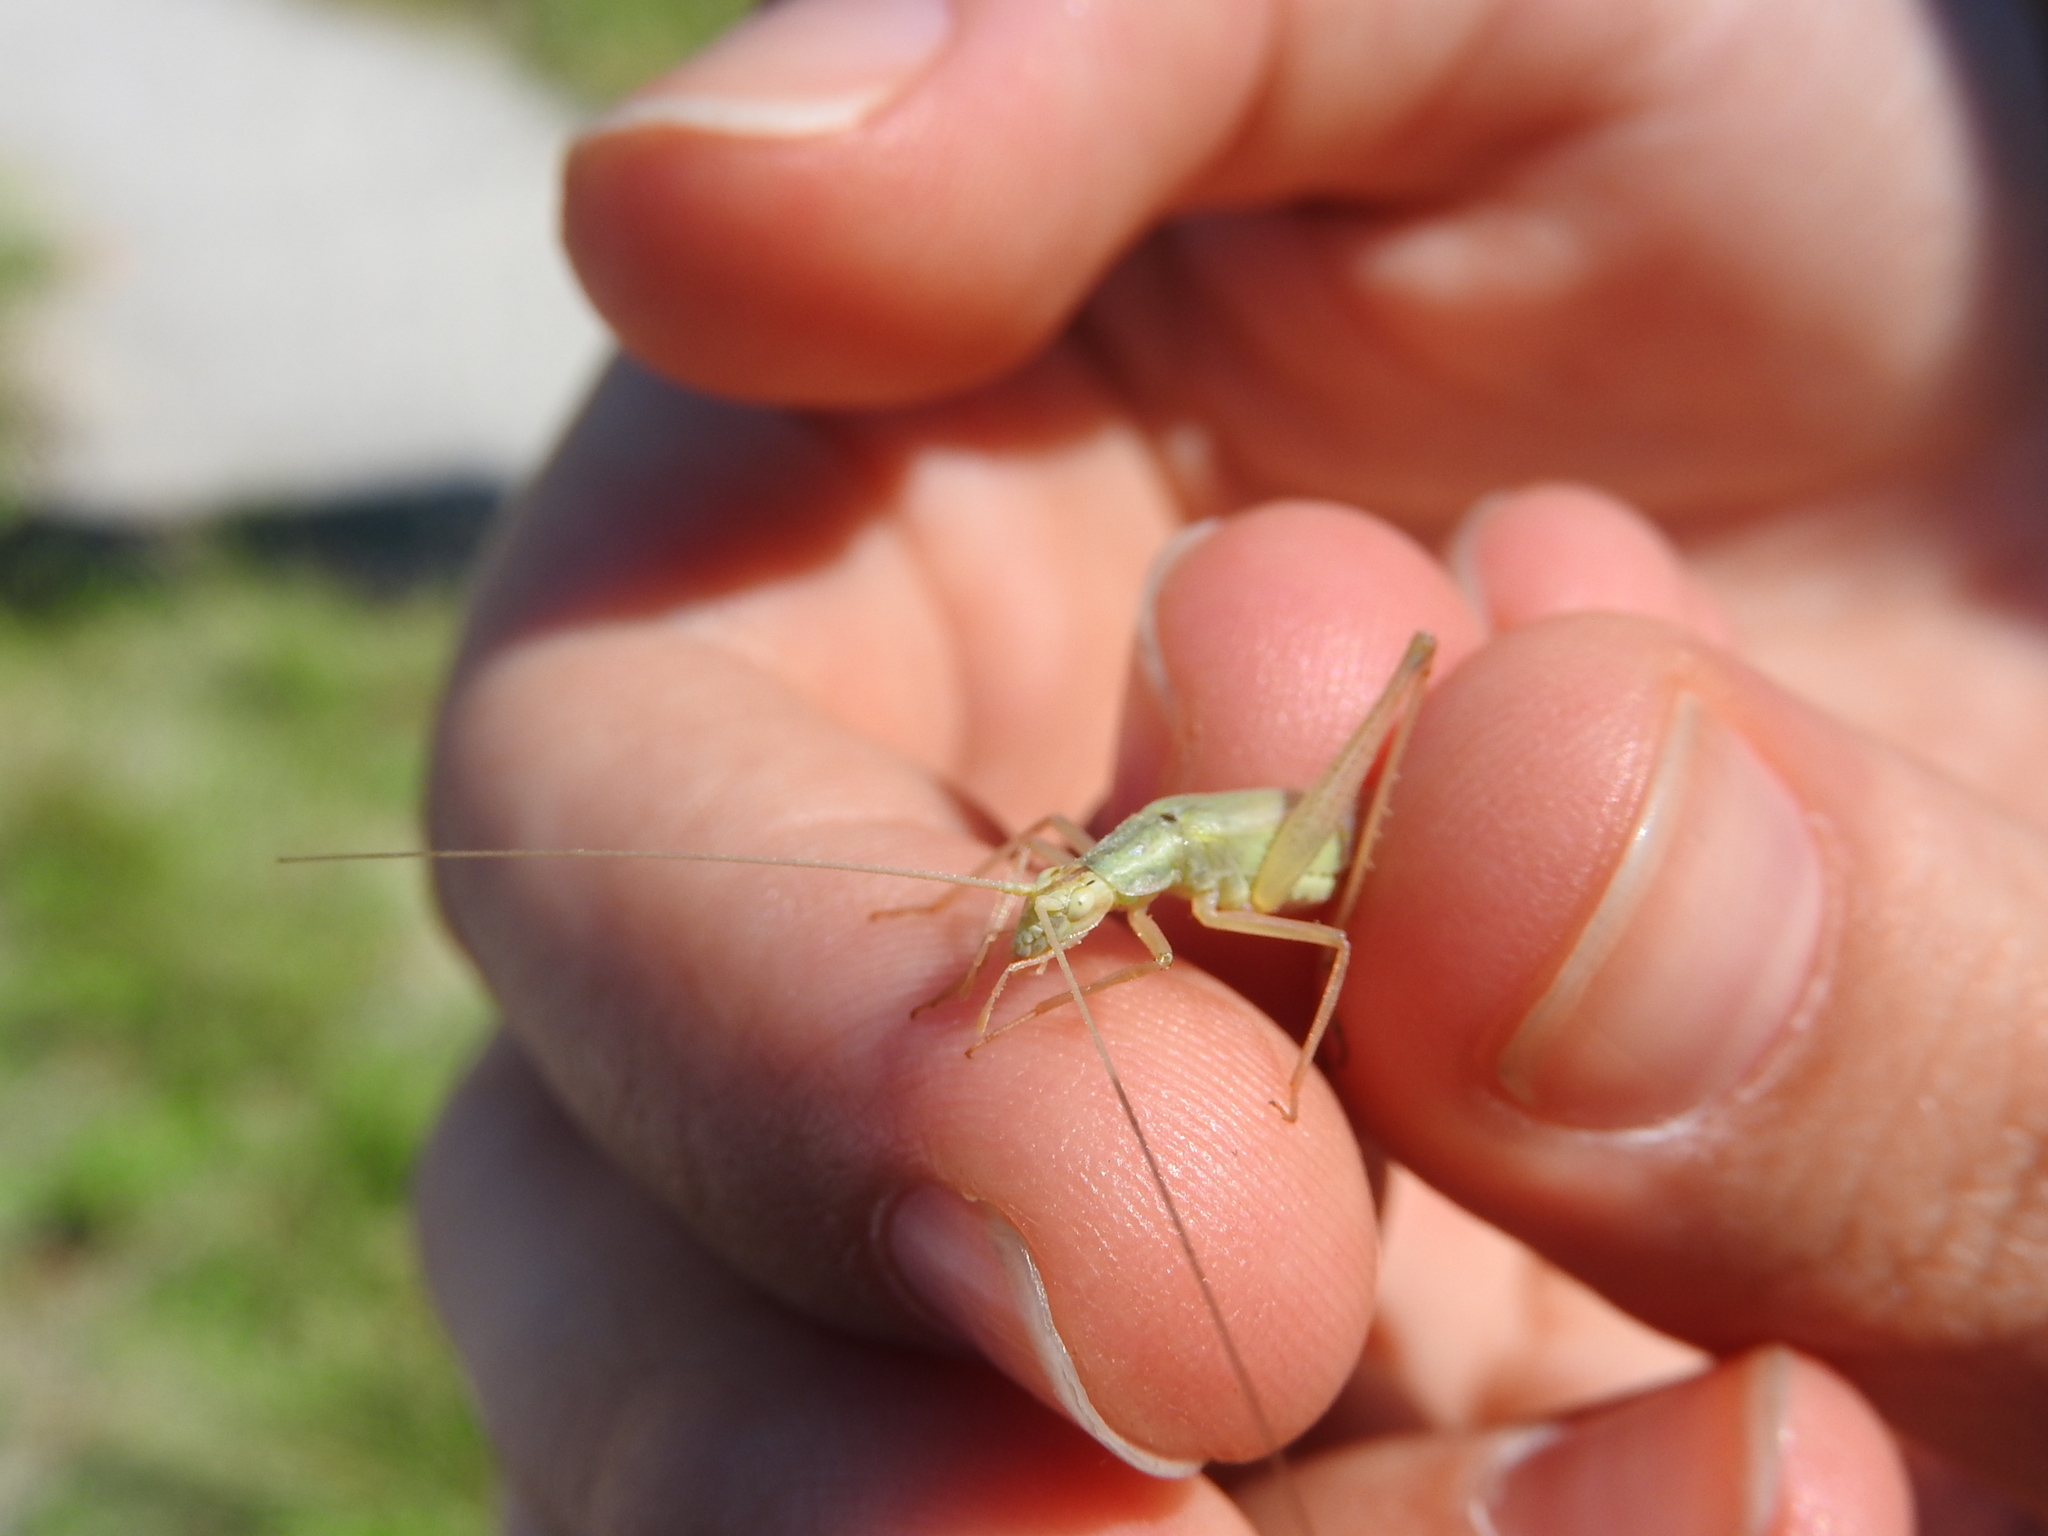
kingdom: Animalia
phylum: Arthropoda
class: Insecta
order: Orthoptera
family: Gryllidae
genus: Oecanthus
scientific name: Oecanthus pellucens
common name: Tree-cricket
